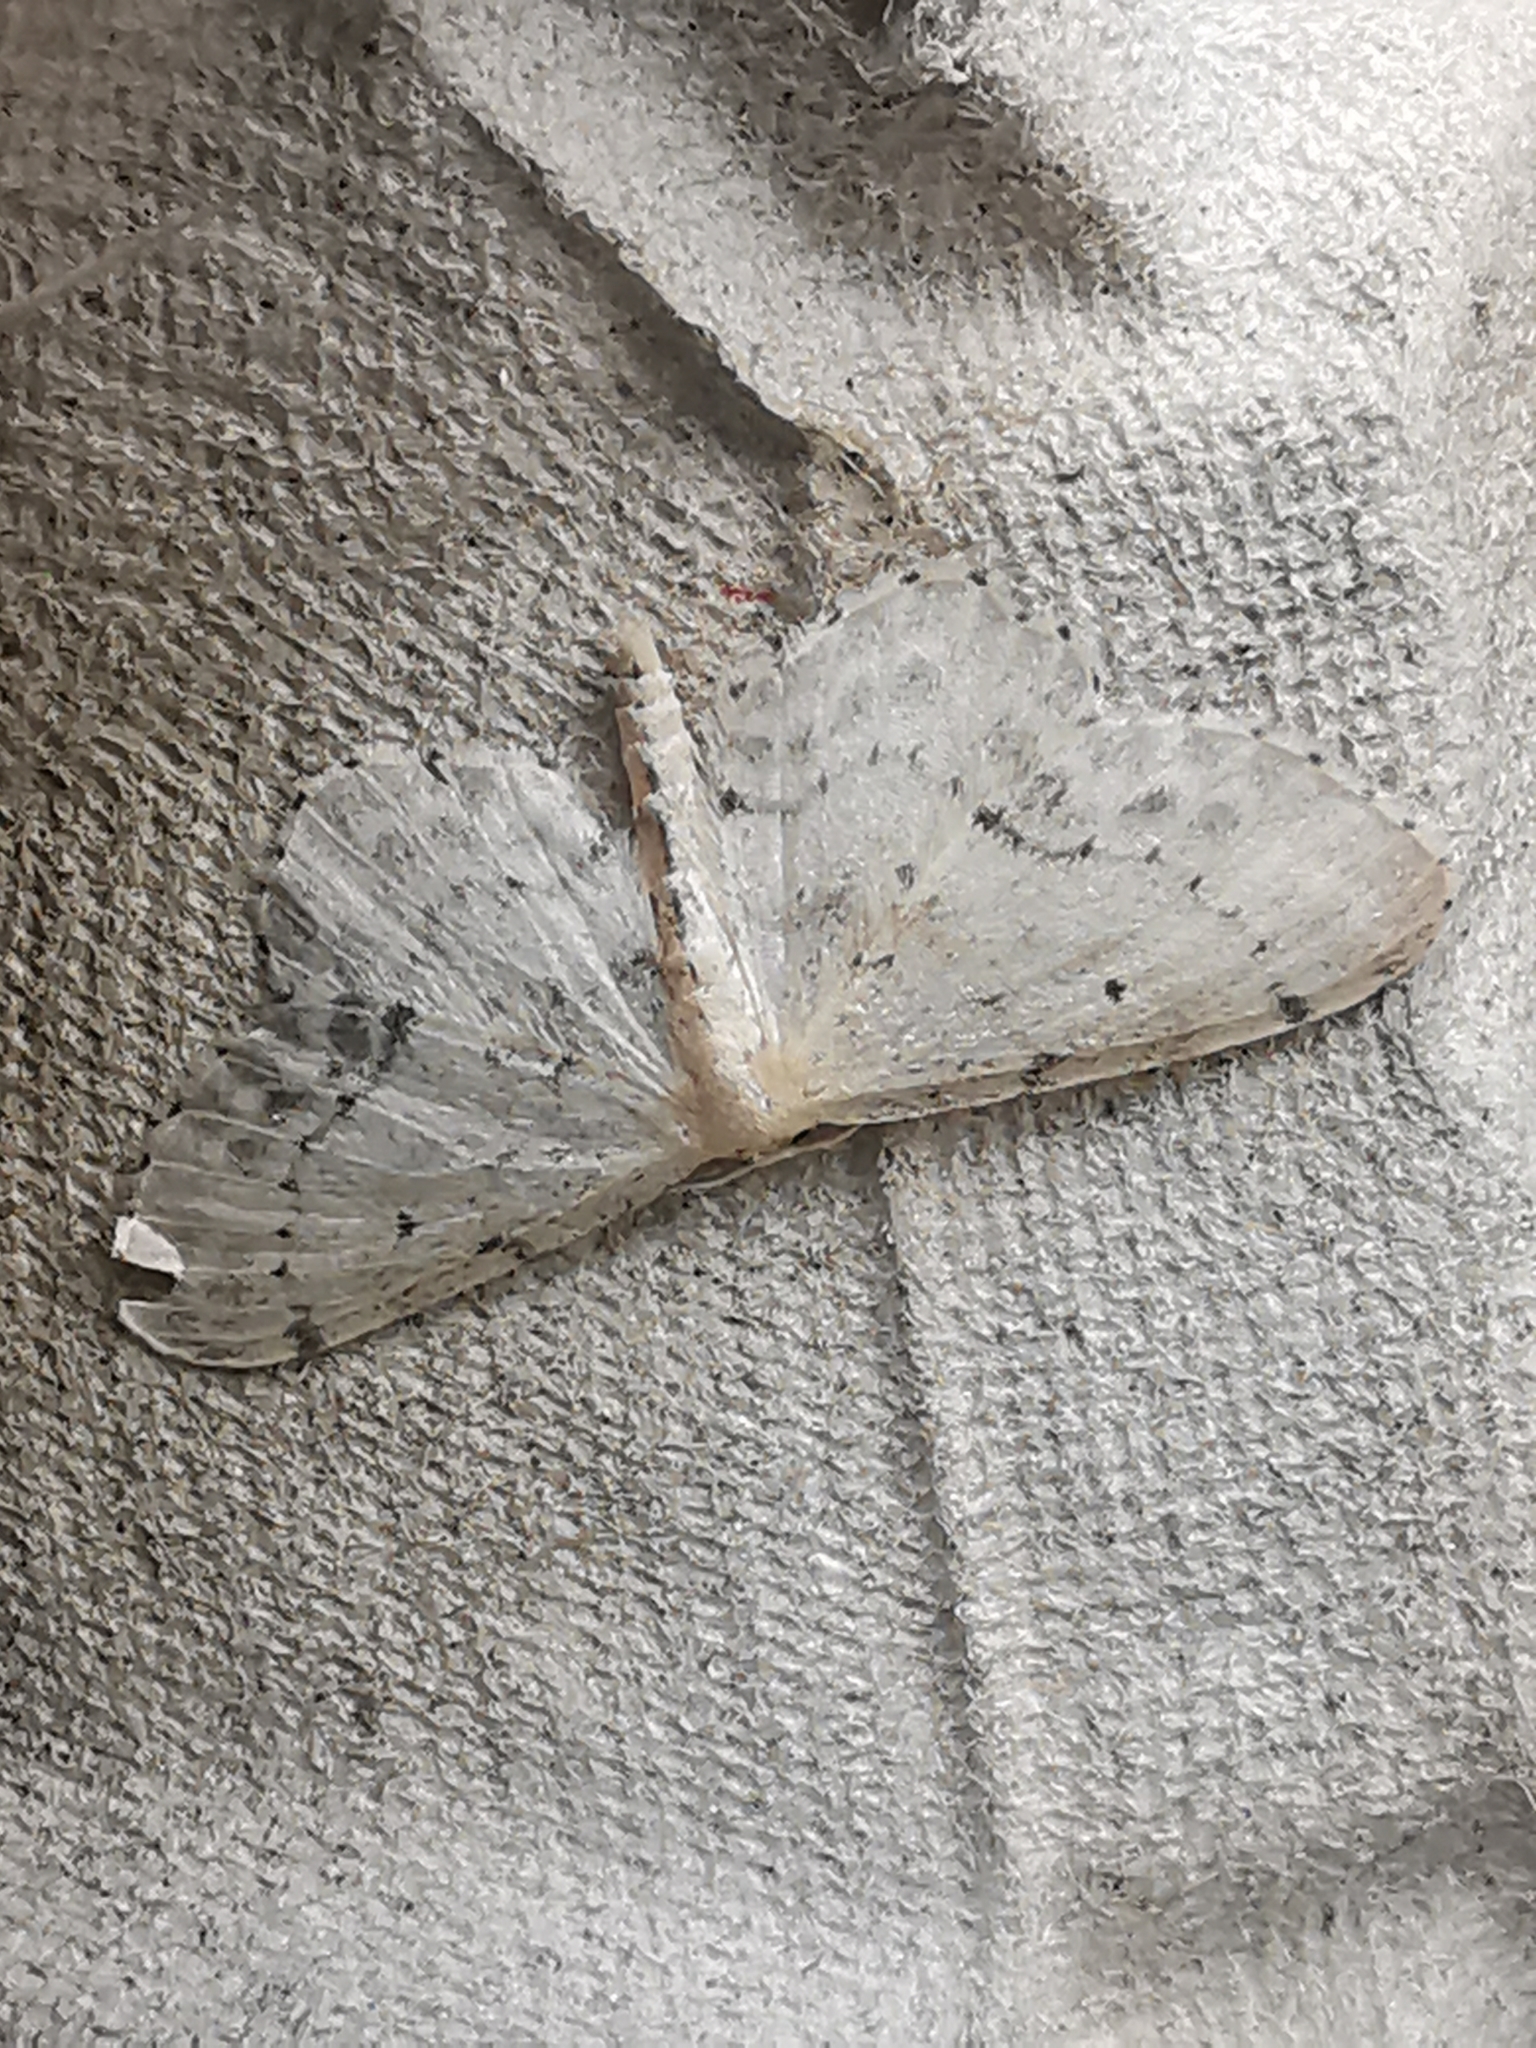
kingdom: Animalia
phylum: Arthropoda
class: Insecta
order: Lepidoptera
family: Geometridae
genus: Idaea
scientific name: Idaea dimidiata
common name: Single-dotted wave
